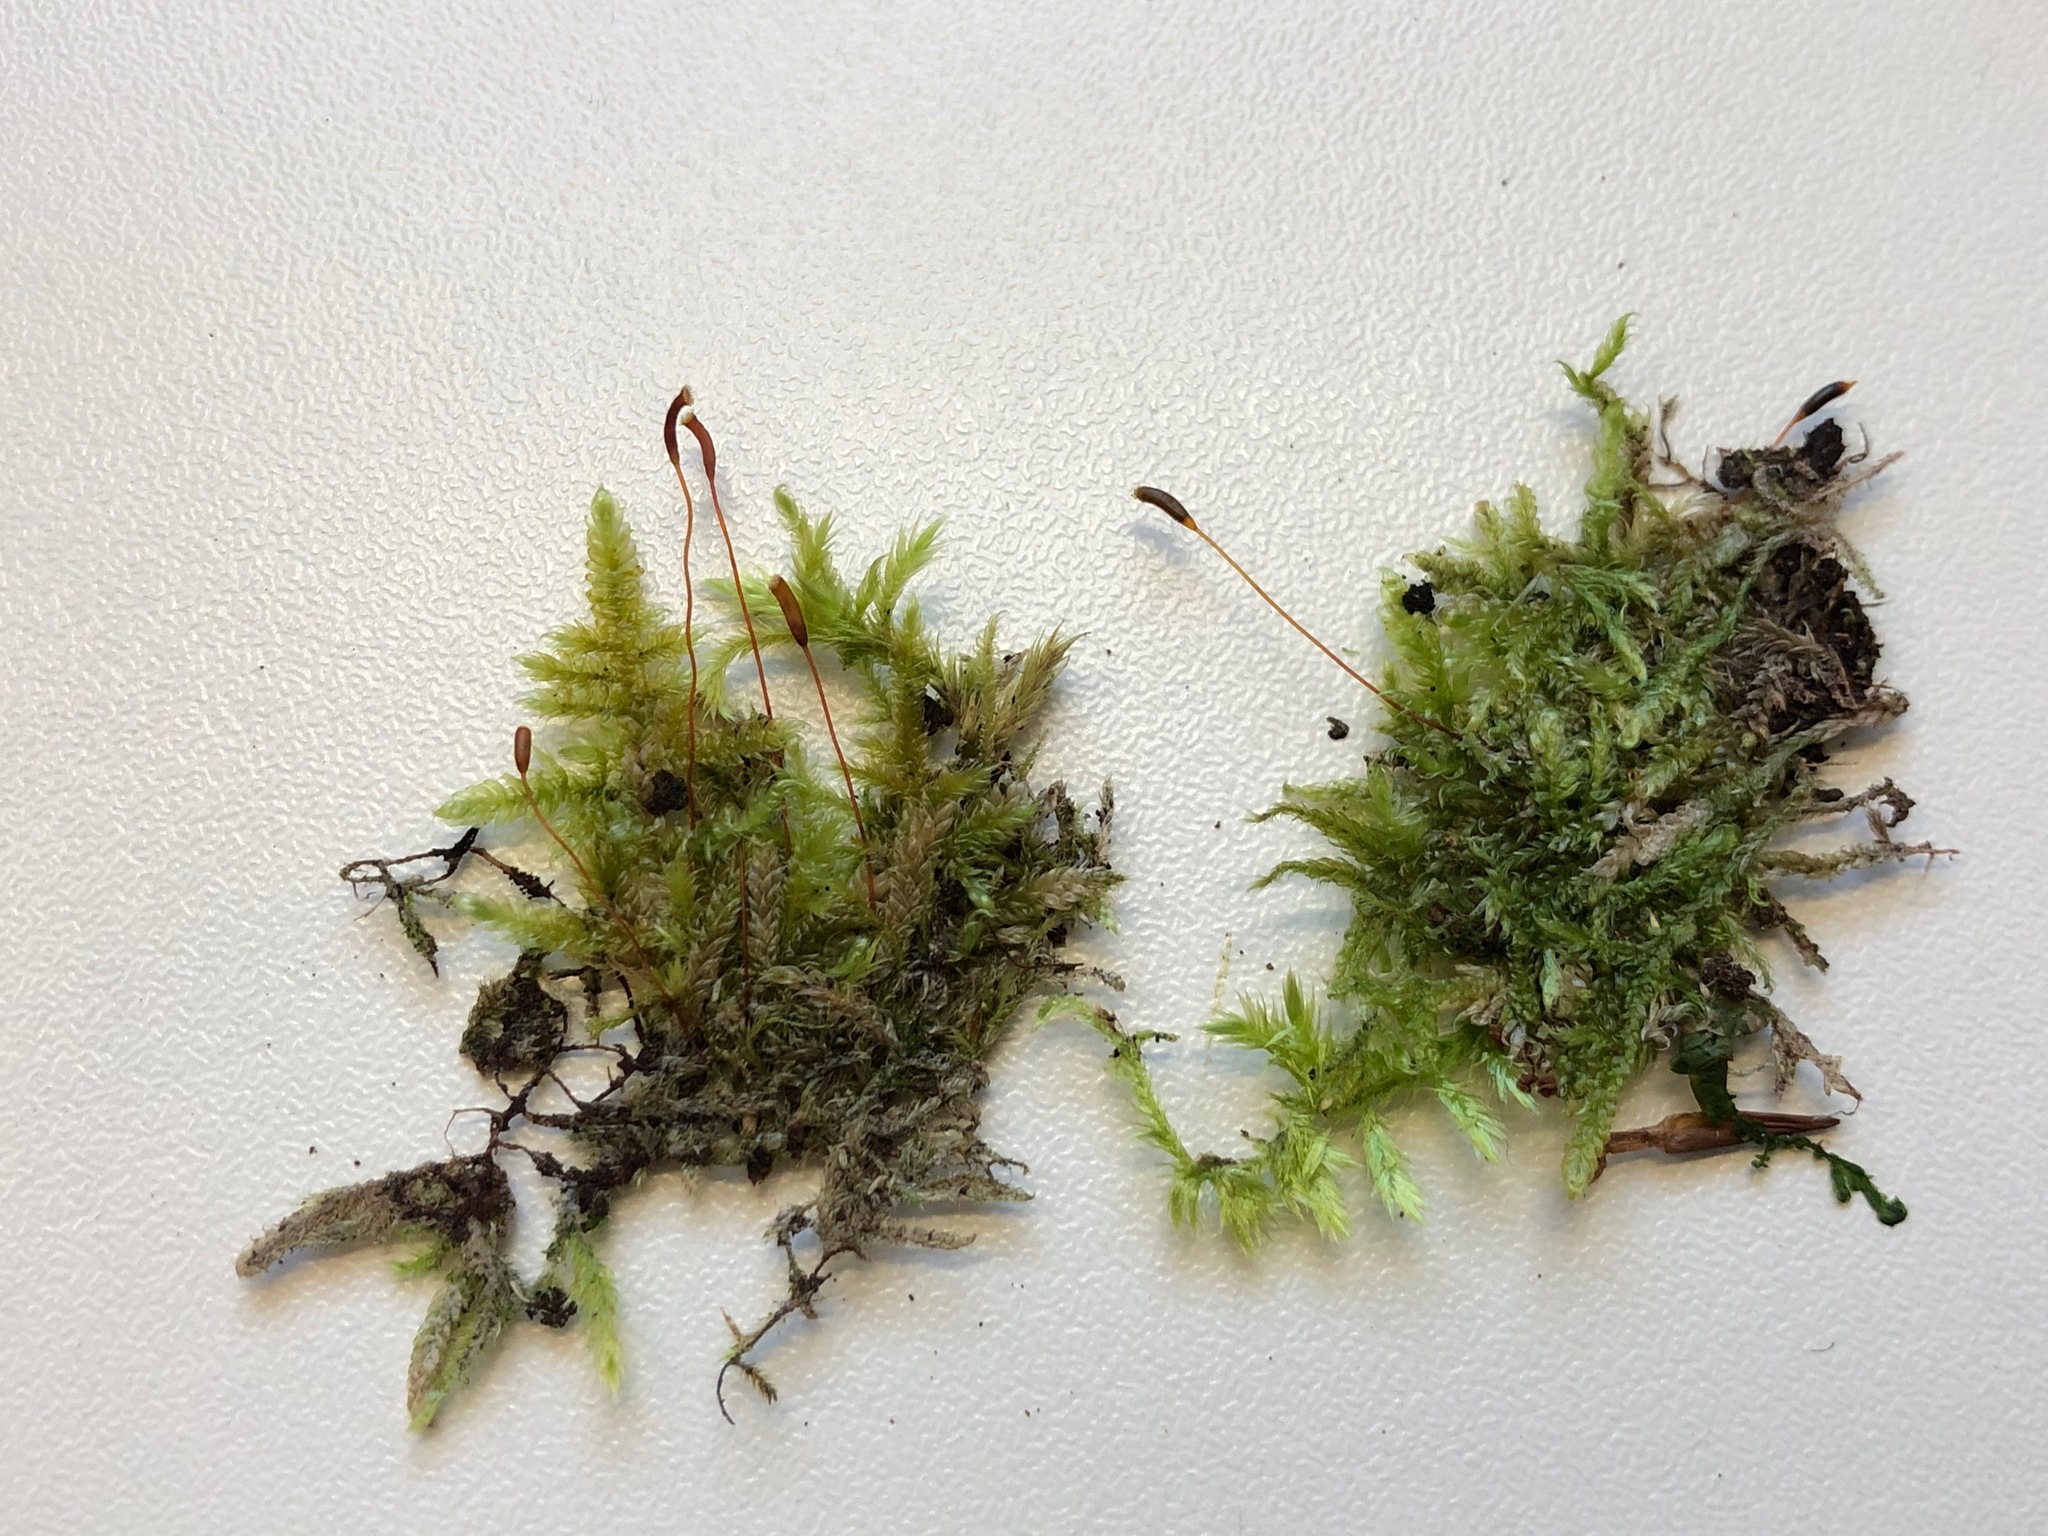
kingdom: Plantae
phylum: Bryophyta
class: Bryopsida
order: Hypnales
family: Hypnaceae
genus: Hypnum
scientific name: Hypnum cupressiforme
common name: Cypress-leaved plait-moss
